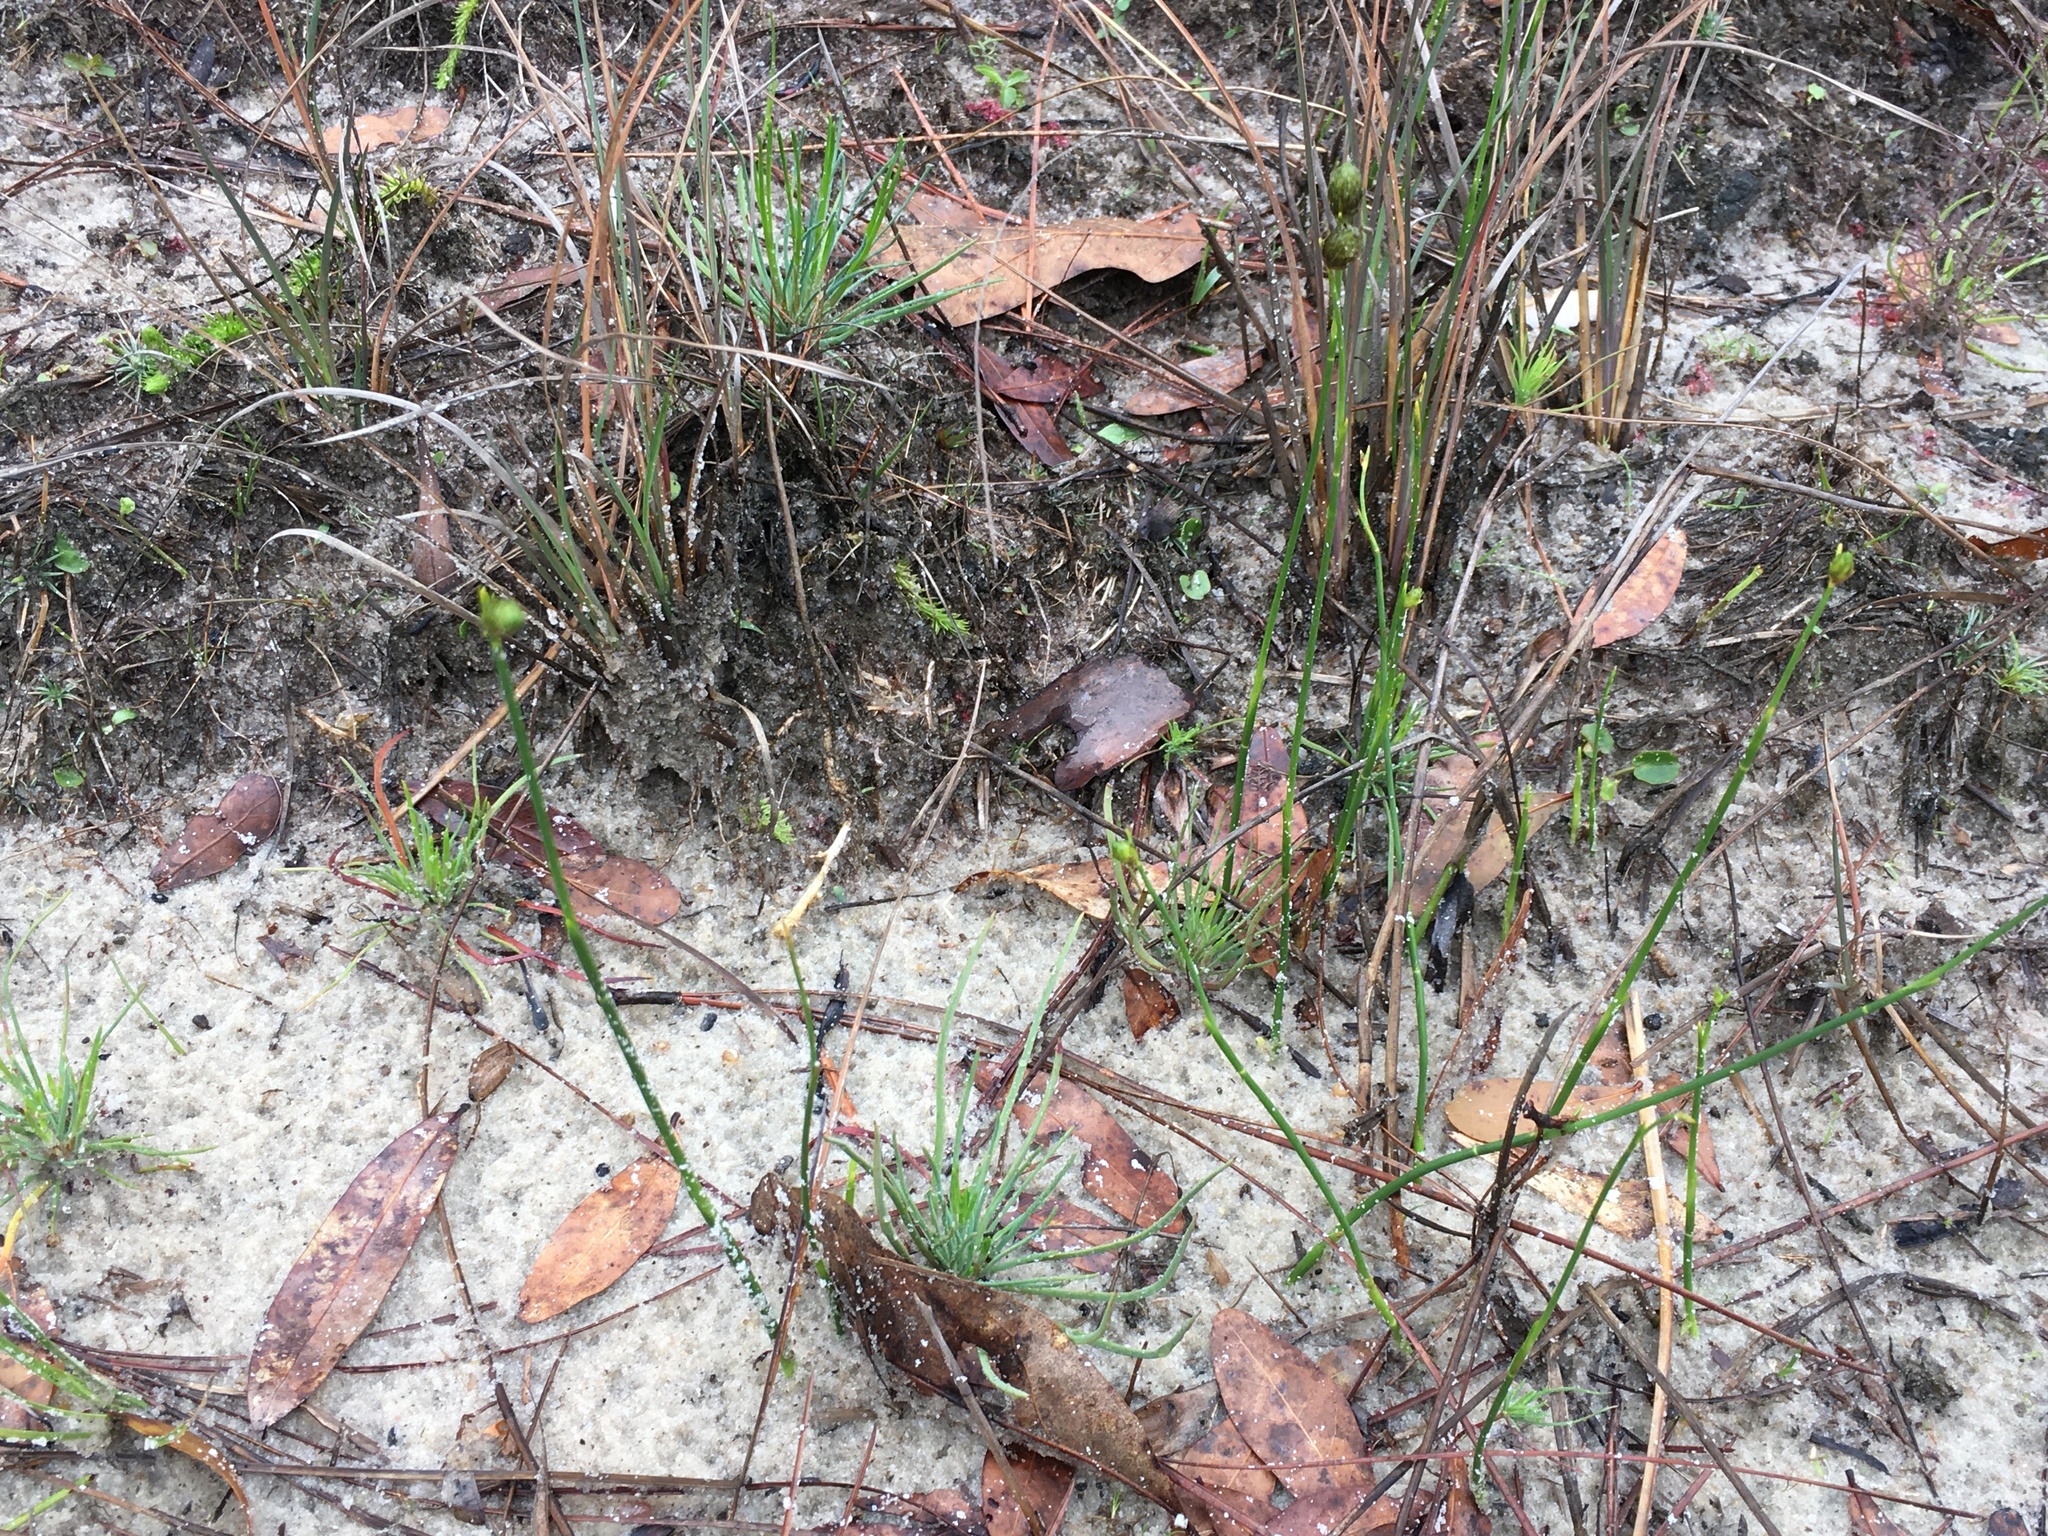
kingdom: Plantae
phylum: Tracheophyta
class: Liliopsida
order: Poales
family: Cyperaceae
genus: Fuirena
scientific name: Fuirena scirpoidea
